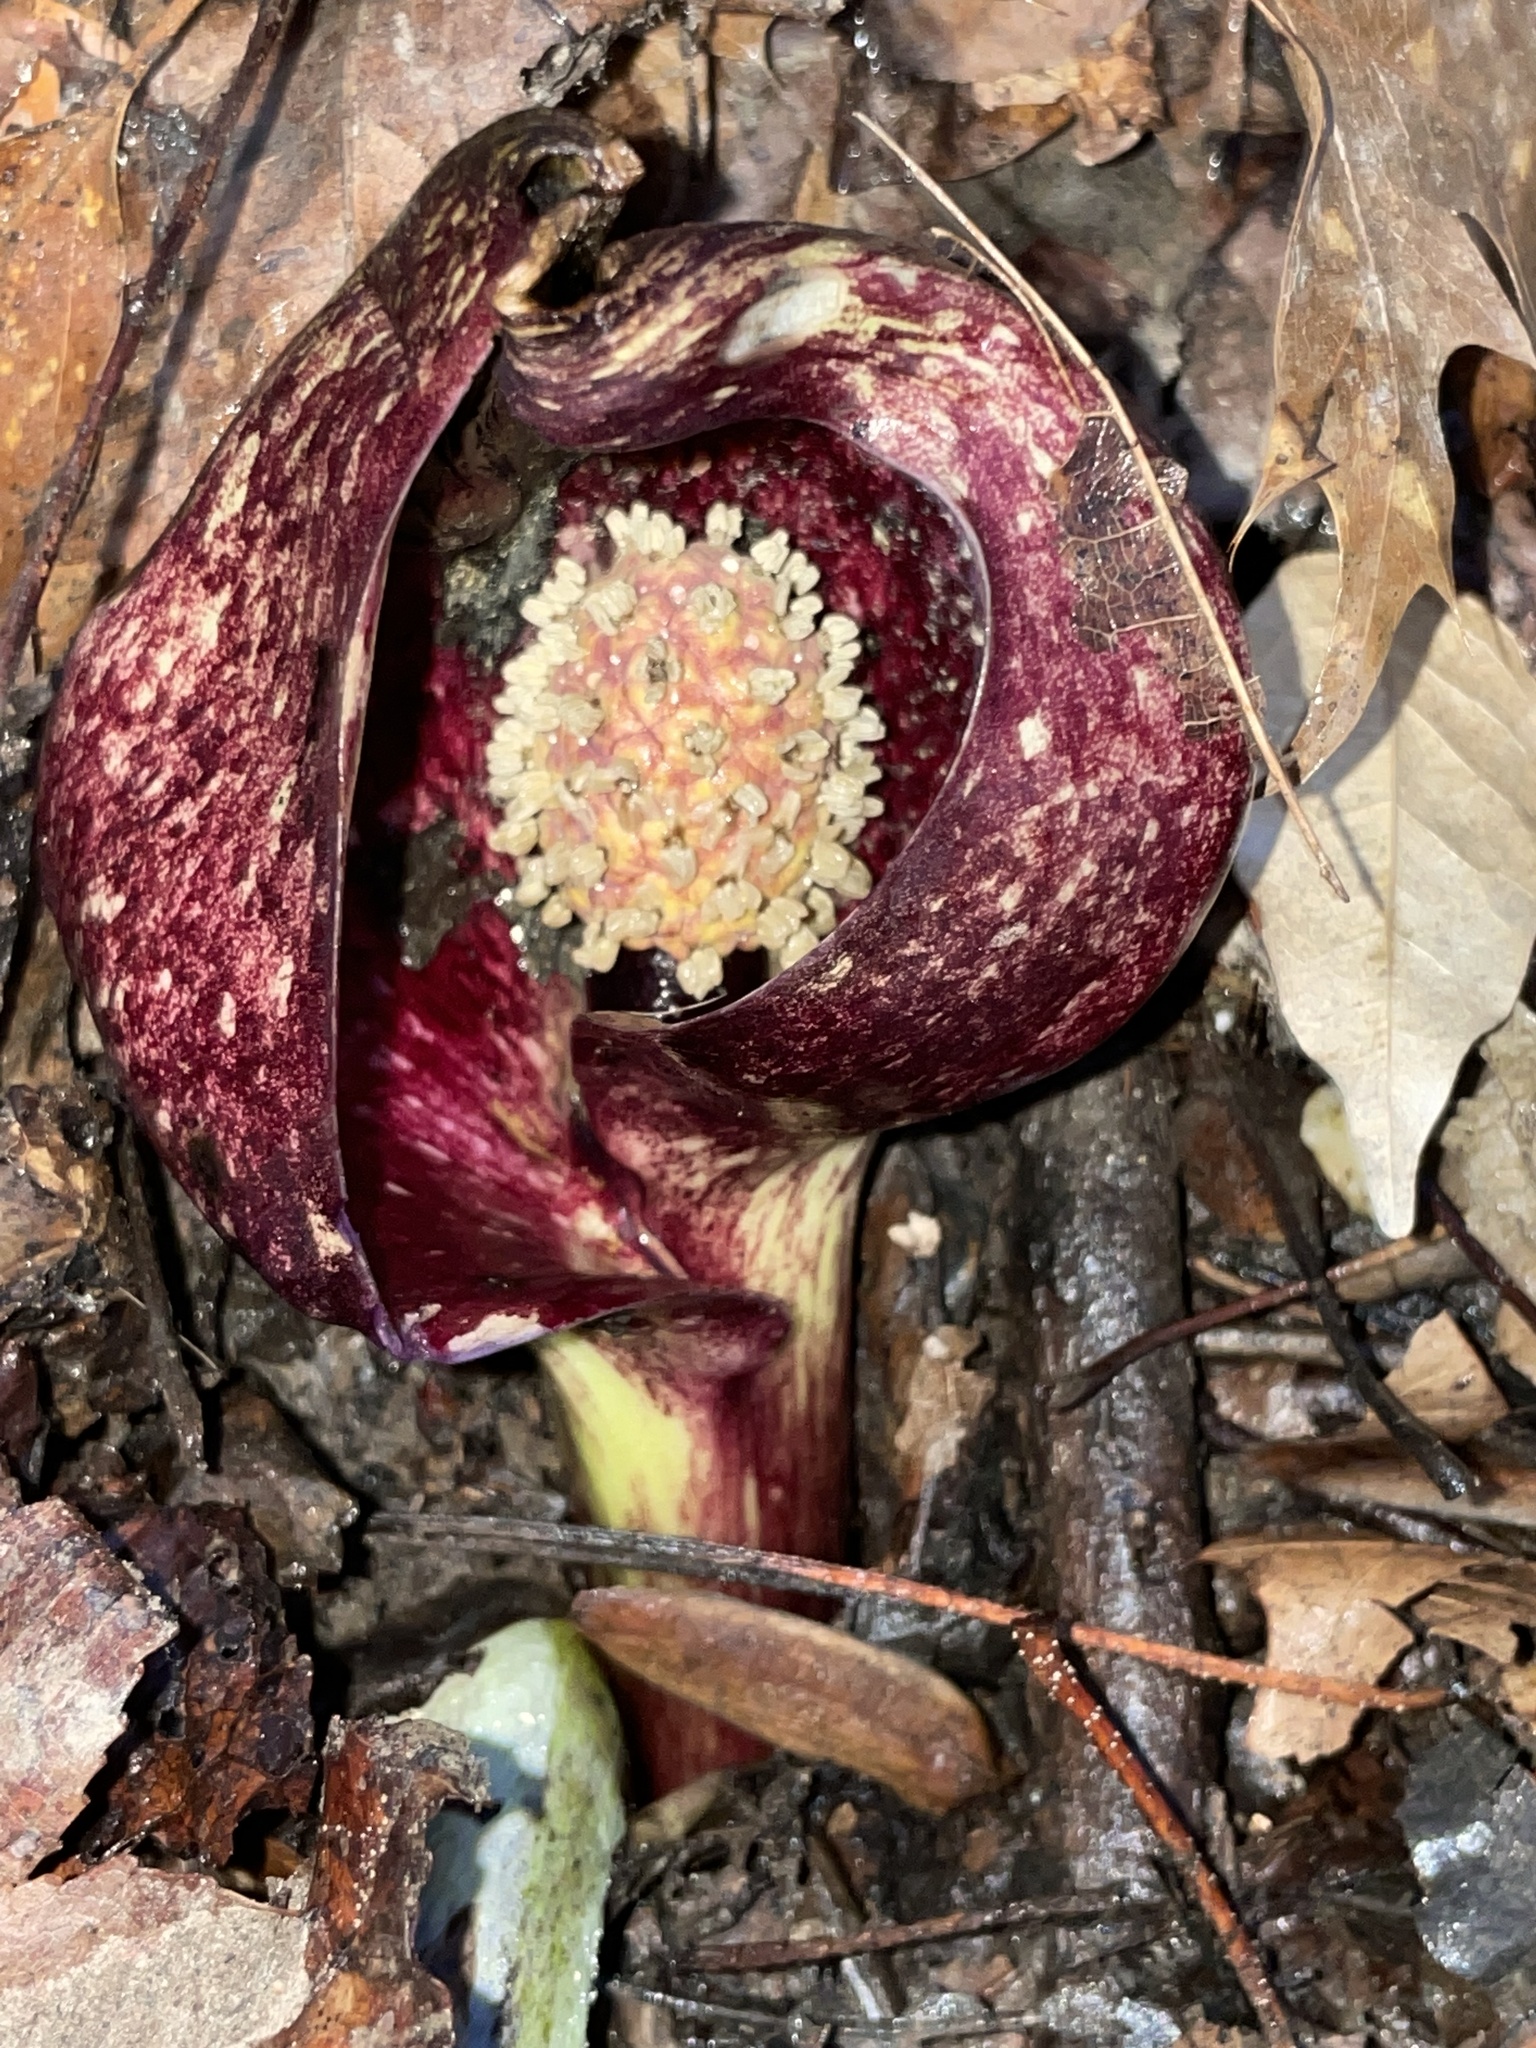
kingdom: Plantae
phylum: Tracheophyta
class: Liliopsida
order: Alismatales
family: Araceae
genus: Symplocarpus
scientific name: Symplocarpus foetidus
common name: Eastern skunk cabbage
